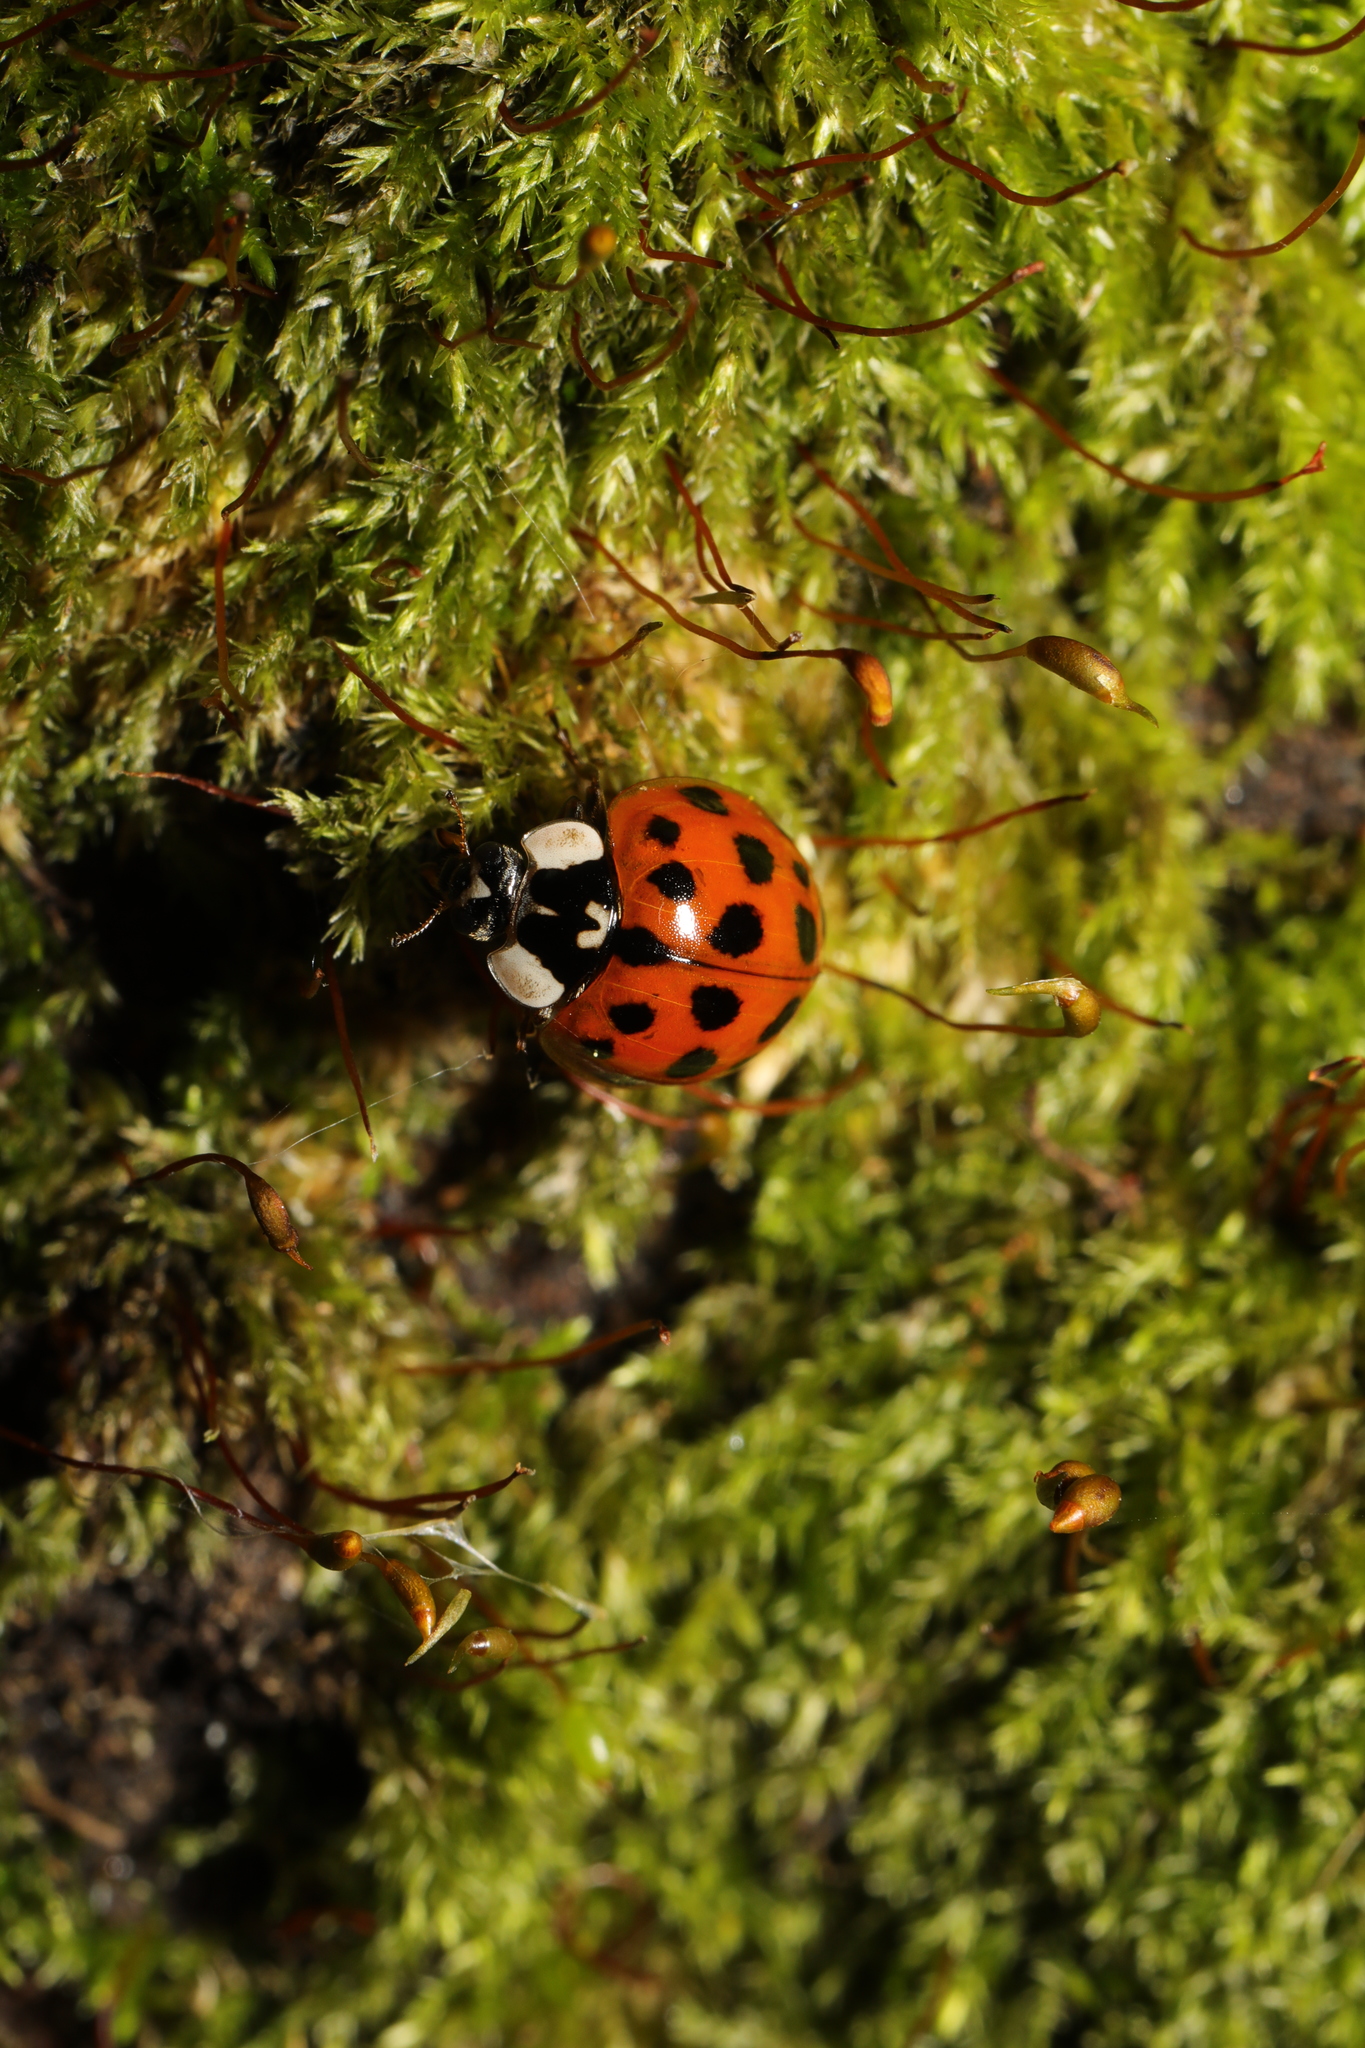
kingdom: Animalia
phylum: Arthropoda
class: Insecta
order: Coleoptera
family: Coccinellidae
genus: Harmonia
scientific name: Harmonia axyridis
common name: Harlequin ladybird
